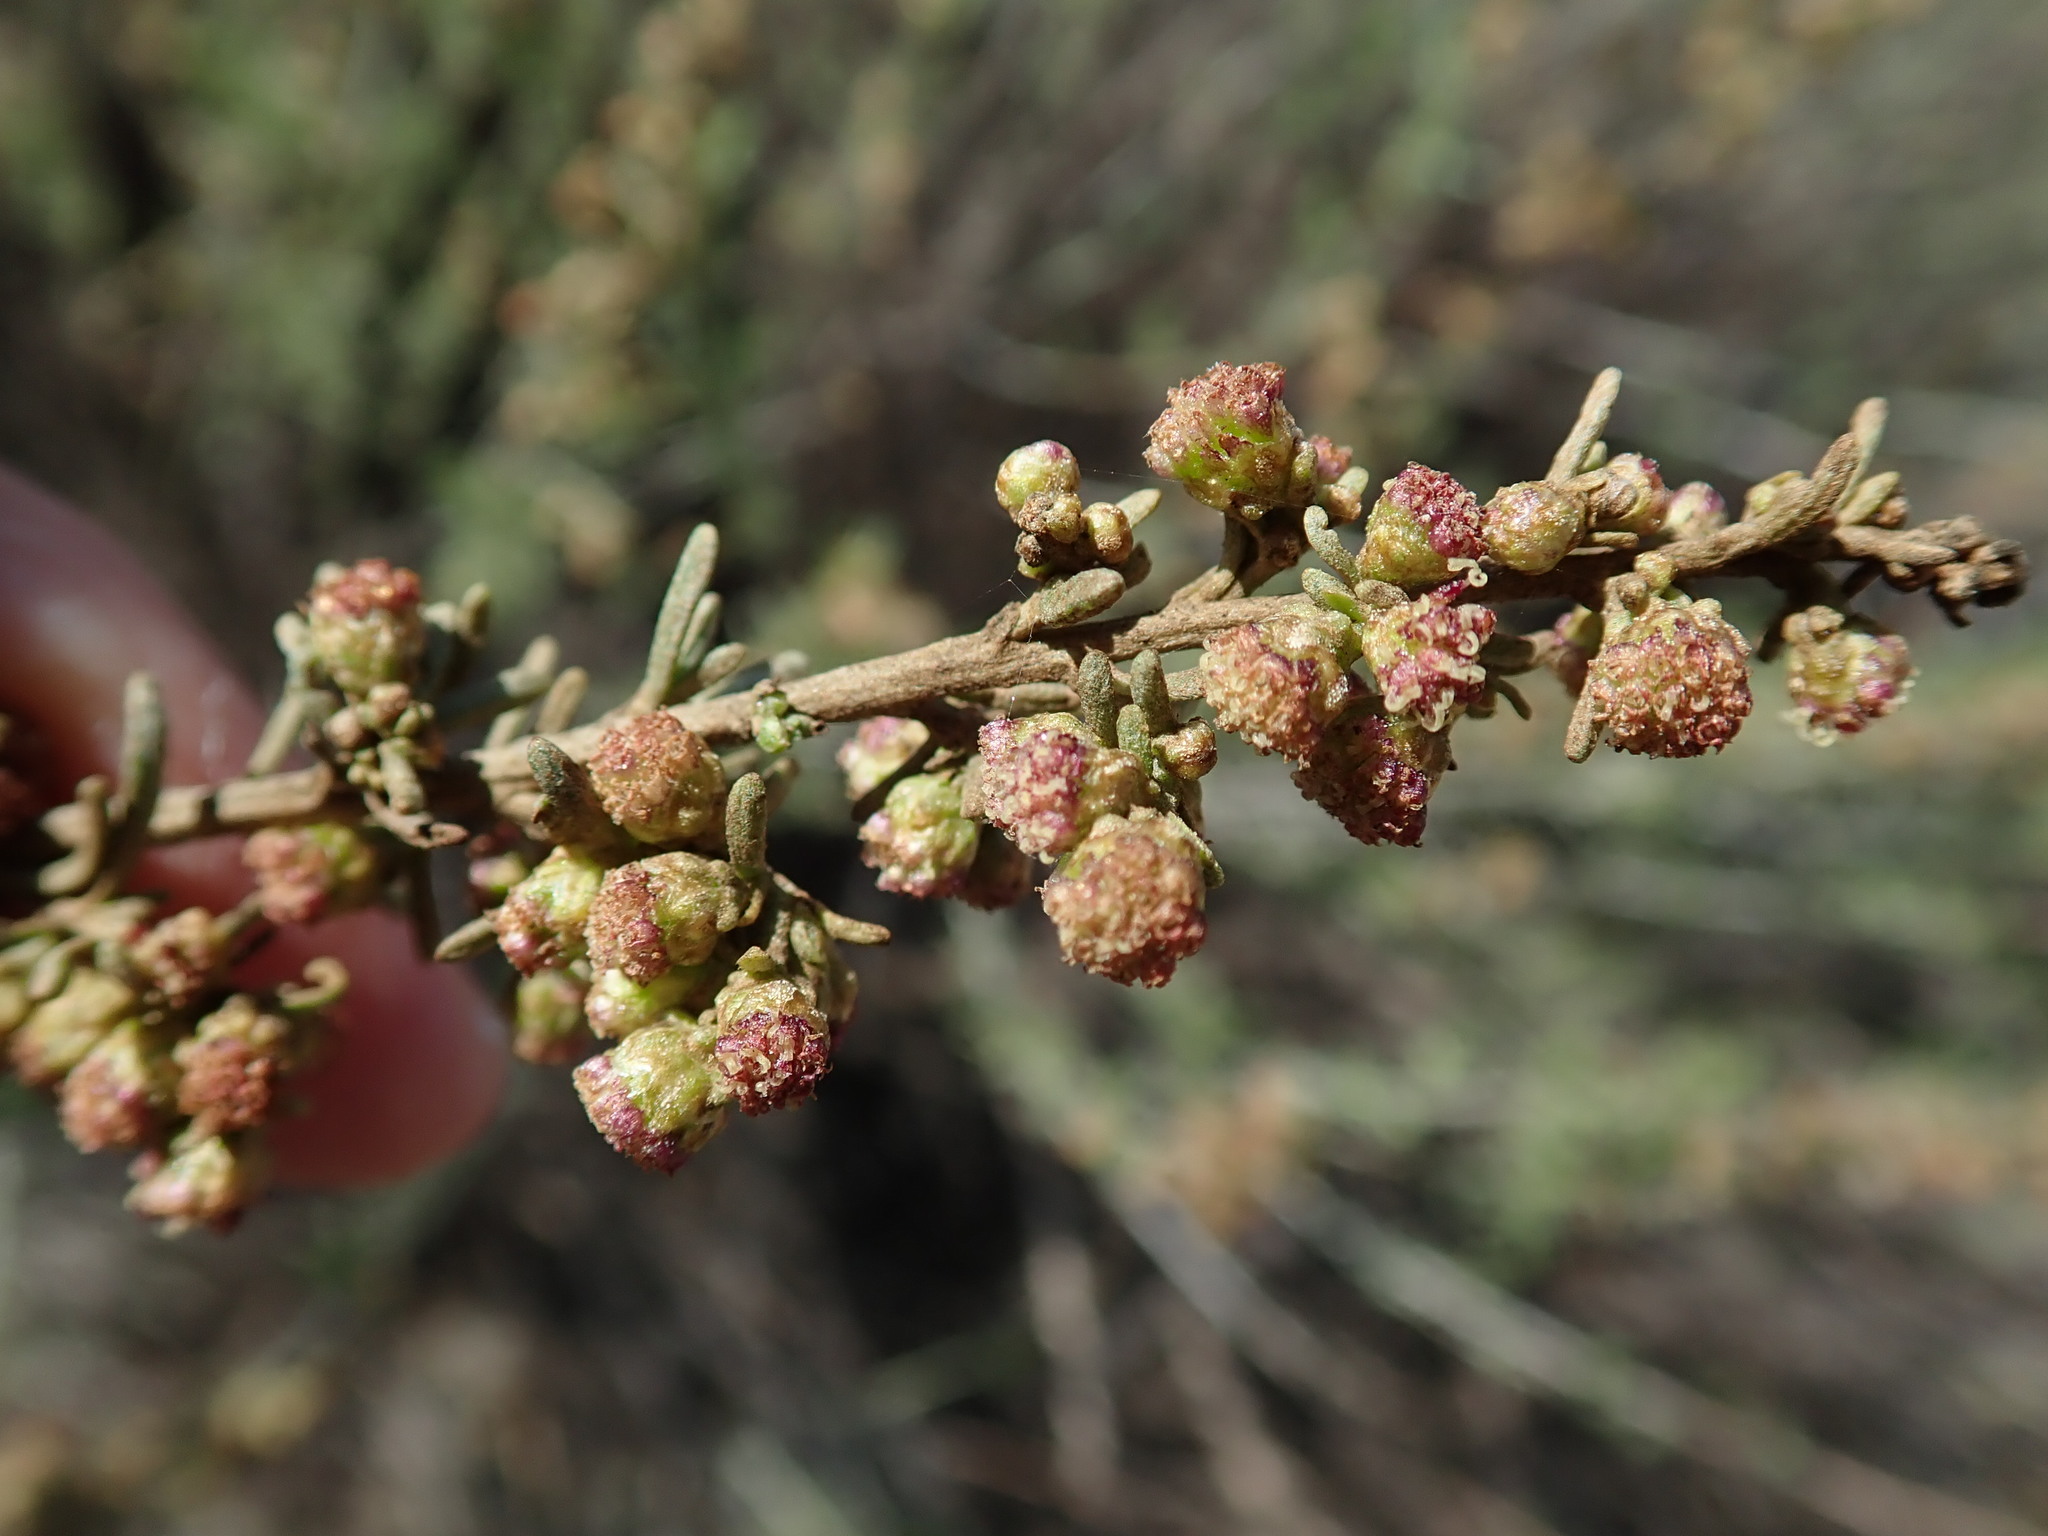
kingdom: Plantae
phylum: Tracheophyta
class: Magnoliopsida
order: Asterales
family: Asteraceae
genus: Artemisia
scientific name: Artemisia californica
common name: California sagebrush
